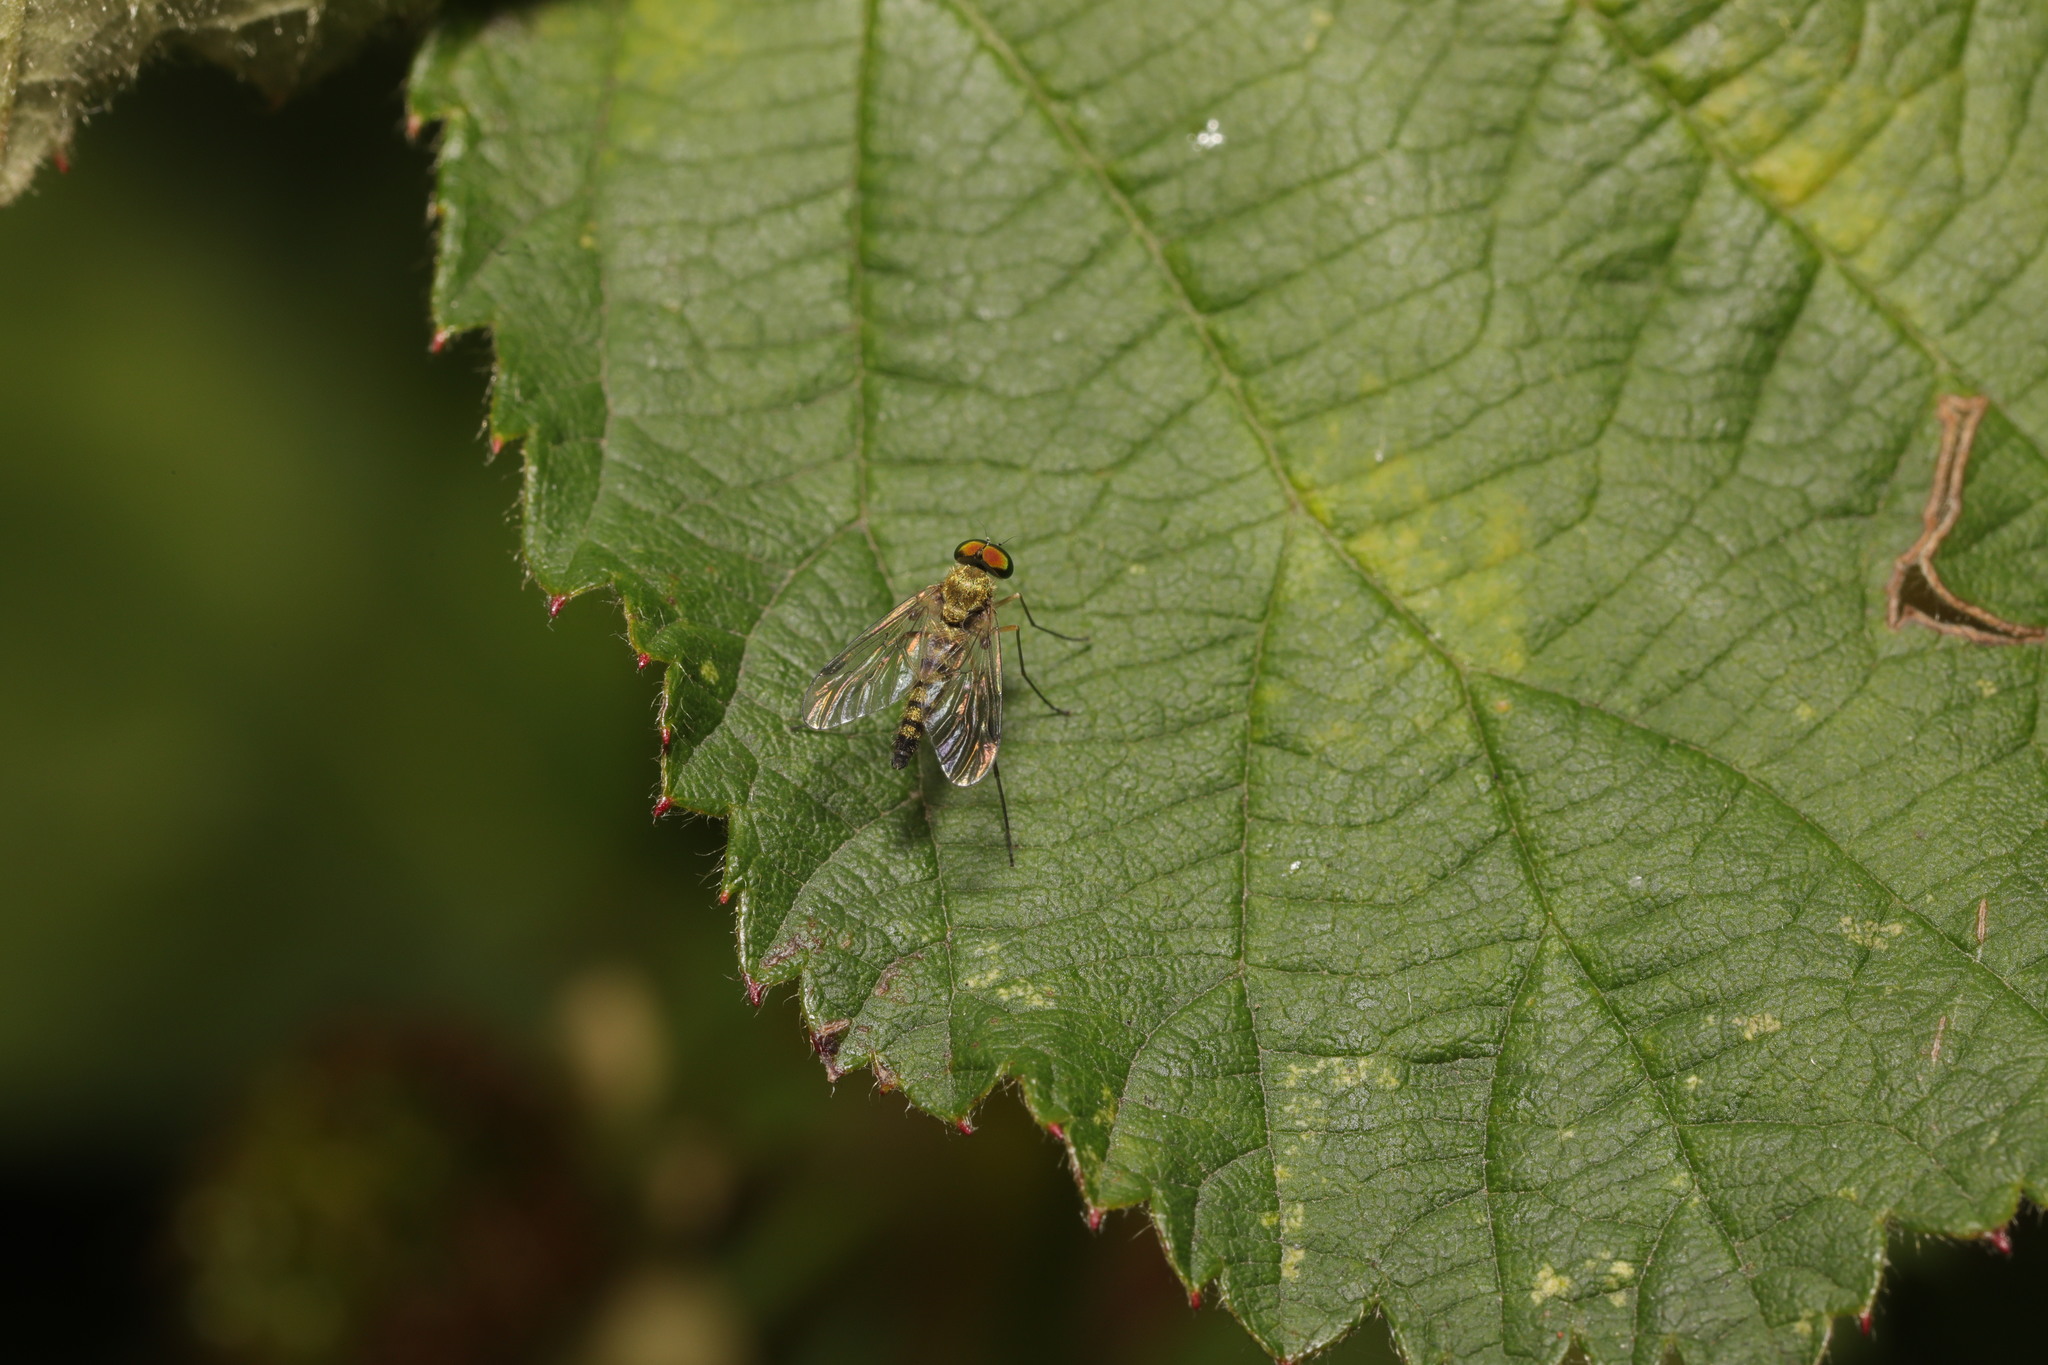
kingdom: Animalia
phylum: Arthropoda
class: Insecta
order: Diptera
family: Rhagionidae
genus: Chrysopilus
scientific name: Chrysopilus asiliformis
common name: Little snipefly
